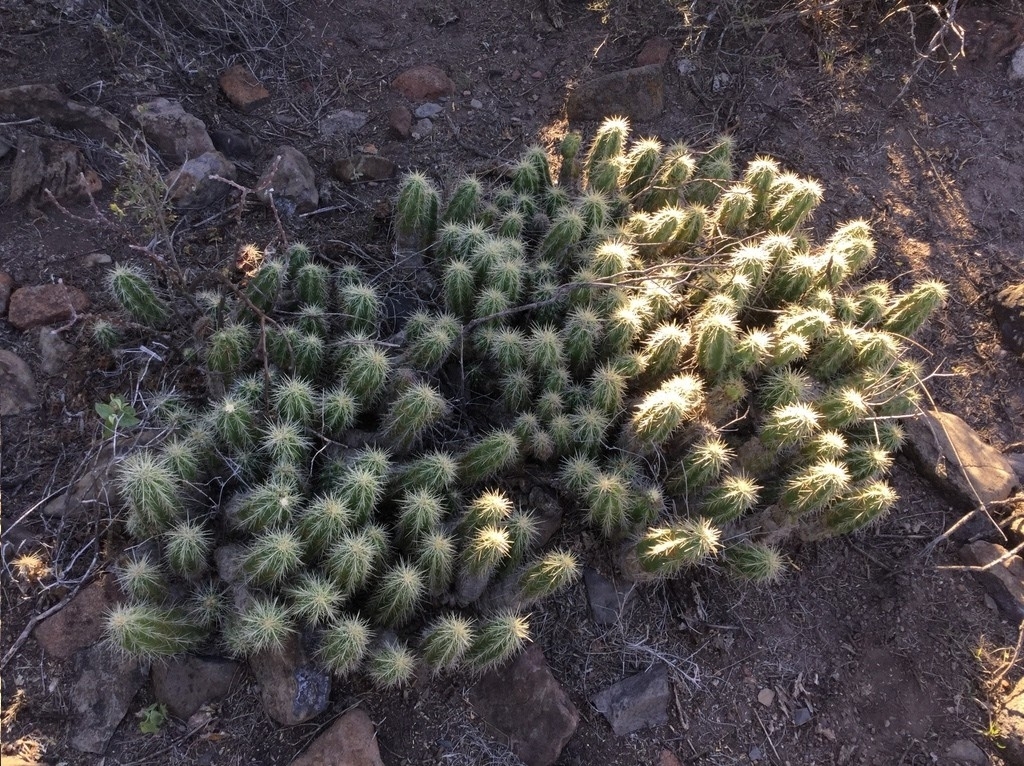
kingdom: Plantae
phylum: Tracheophyta
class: Magnoliopsida
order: Caryophyllales
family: Cactaceae
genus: Echinocereus
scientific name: Echinocereus cinerascens
